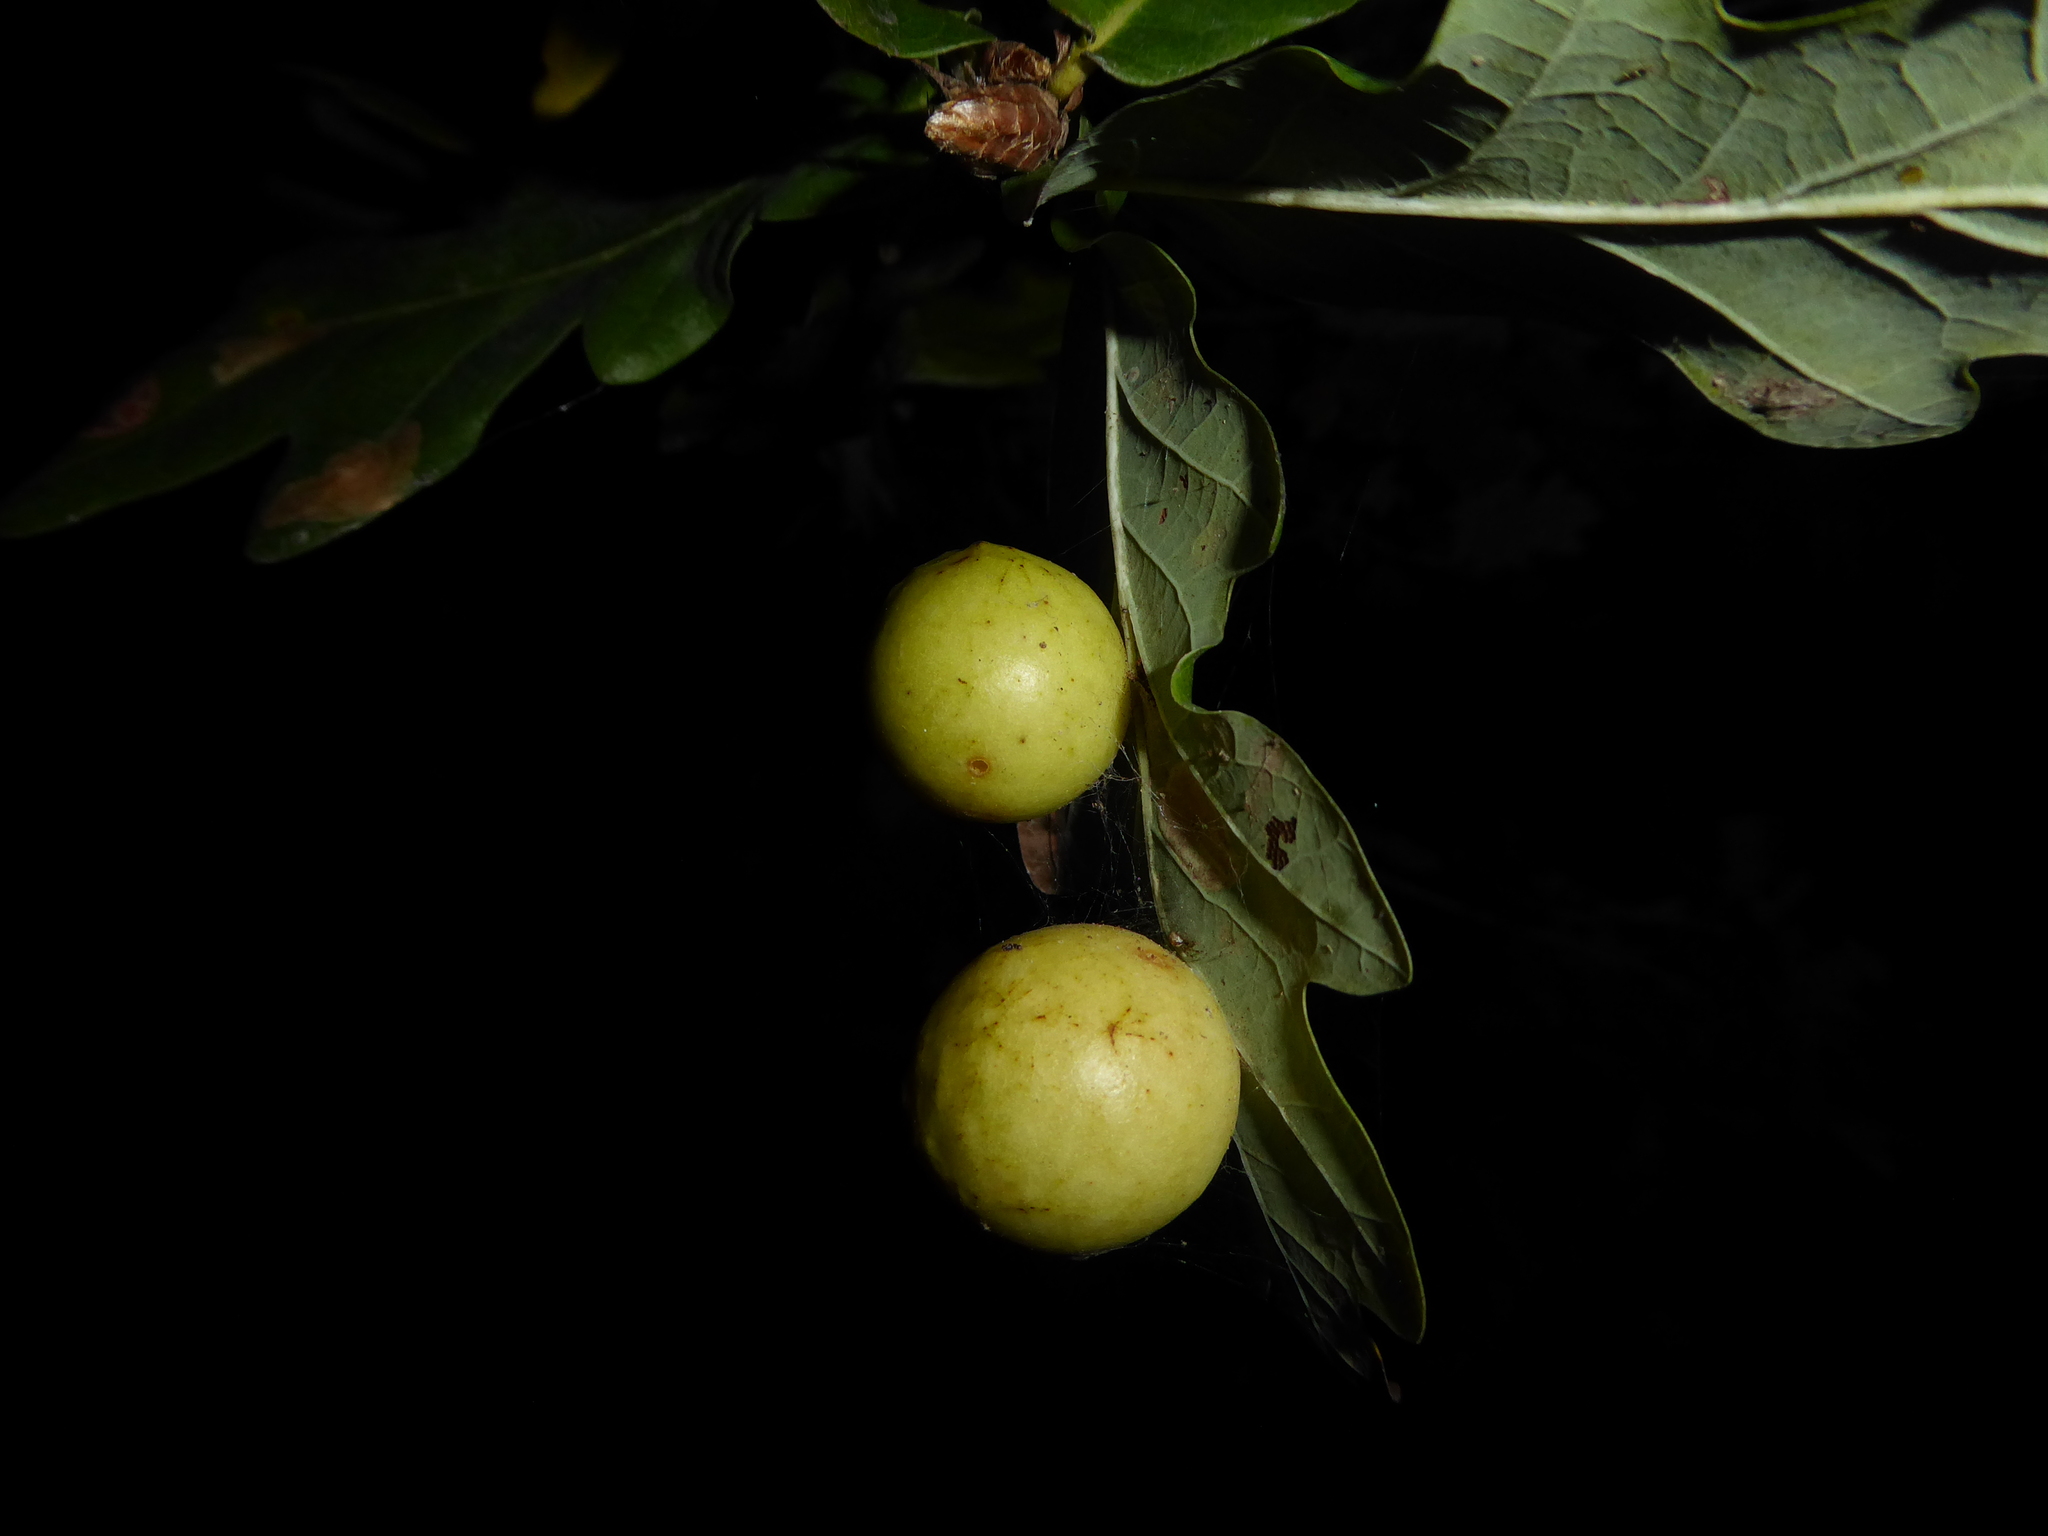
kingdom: Animalia
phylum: Arthropoda
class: Insecta
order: Hymenoptera
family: Cynipidae
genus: Cynips
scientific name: Cynips quercusfolii
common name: Cherry gall
